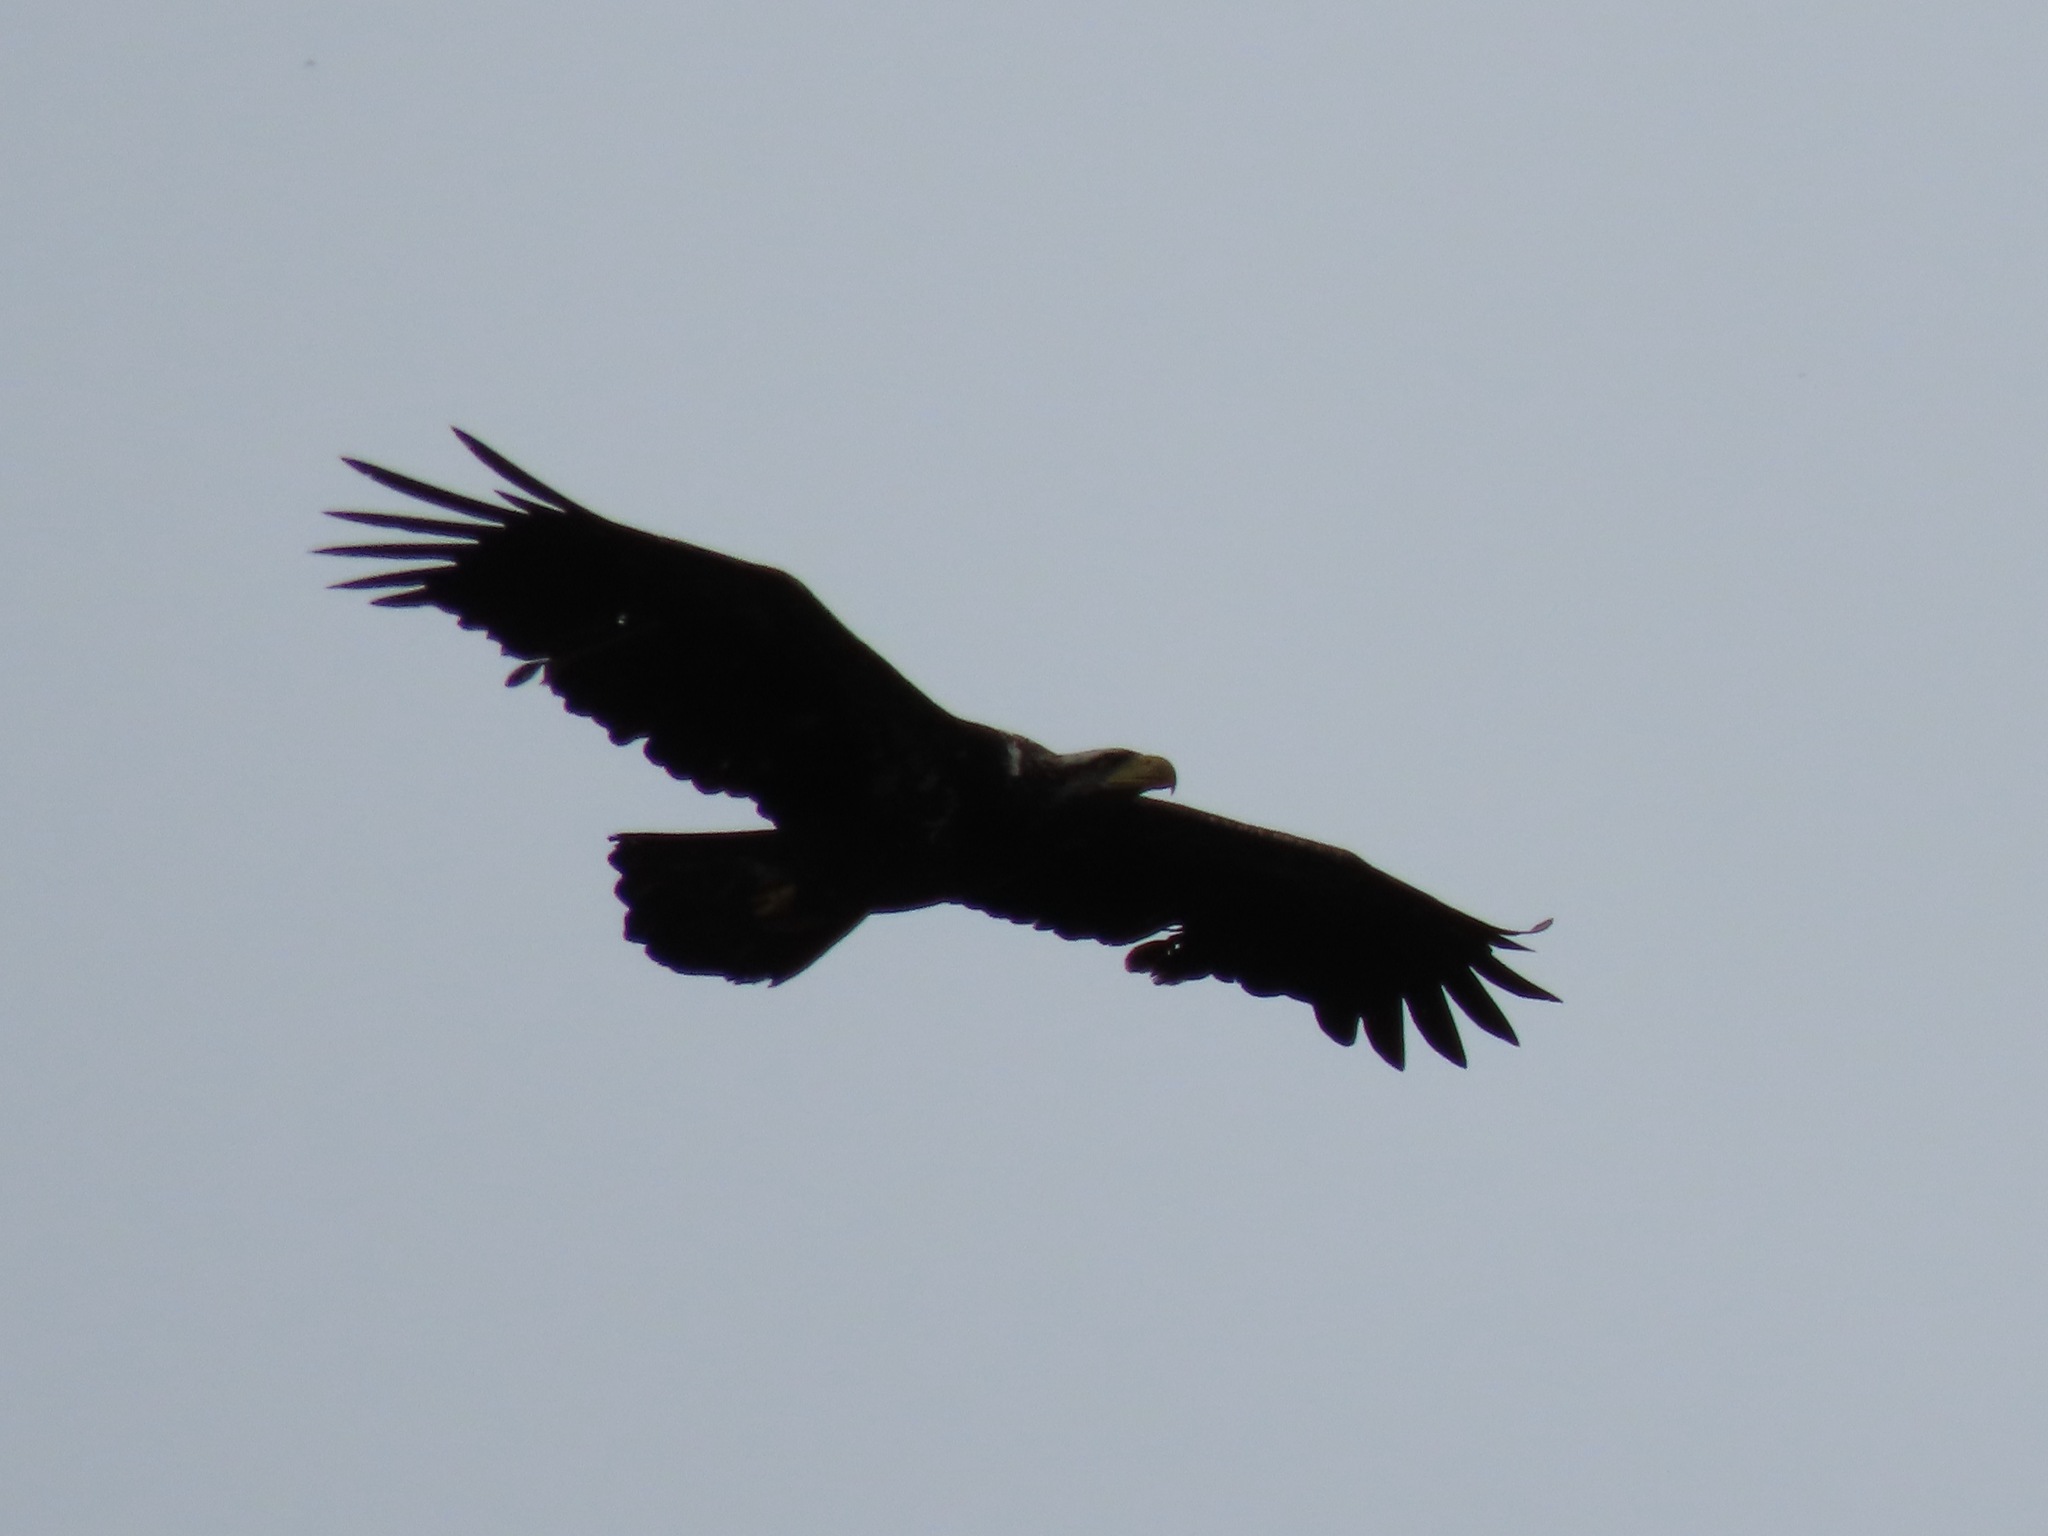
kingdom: Animalia
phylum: Chordata
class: Aves
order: Accipitriformes
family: Accipitridae
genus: Haliaeetus
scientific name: Haliaeetus leucocephalus
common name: Bald eagle
